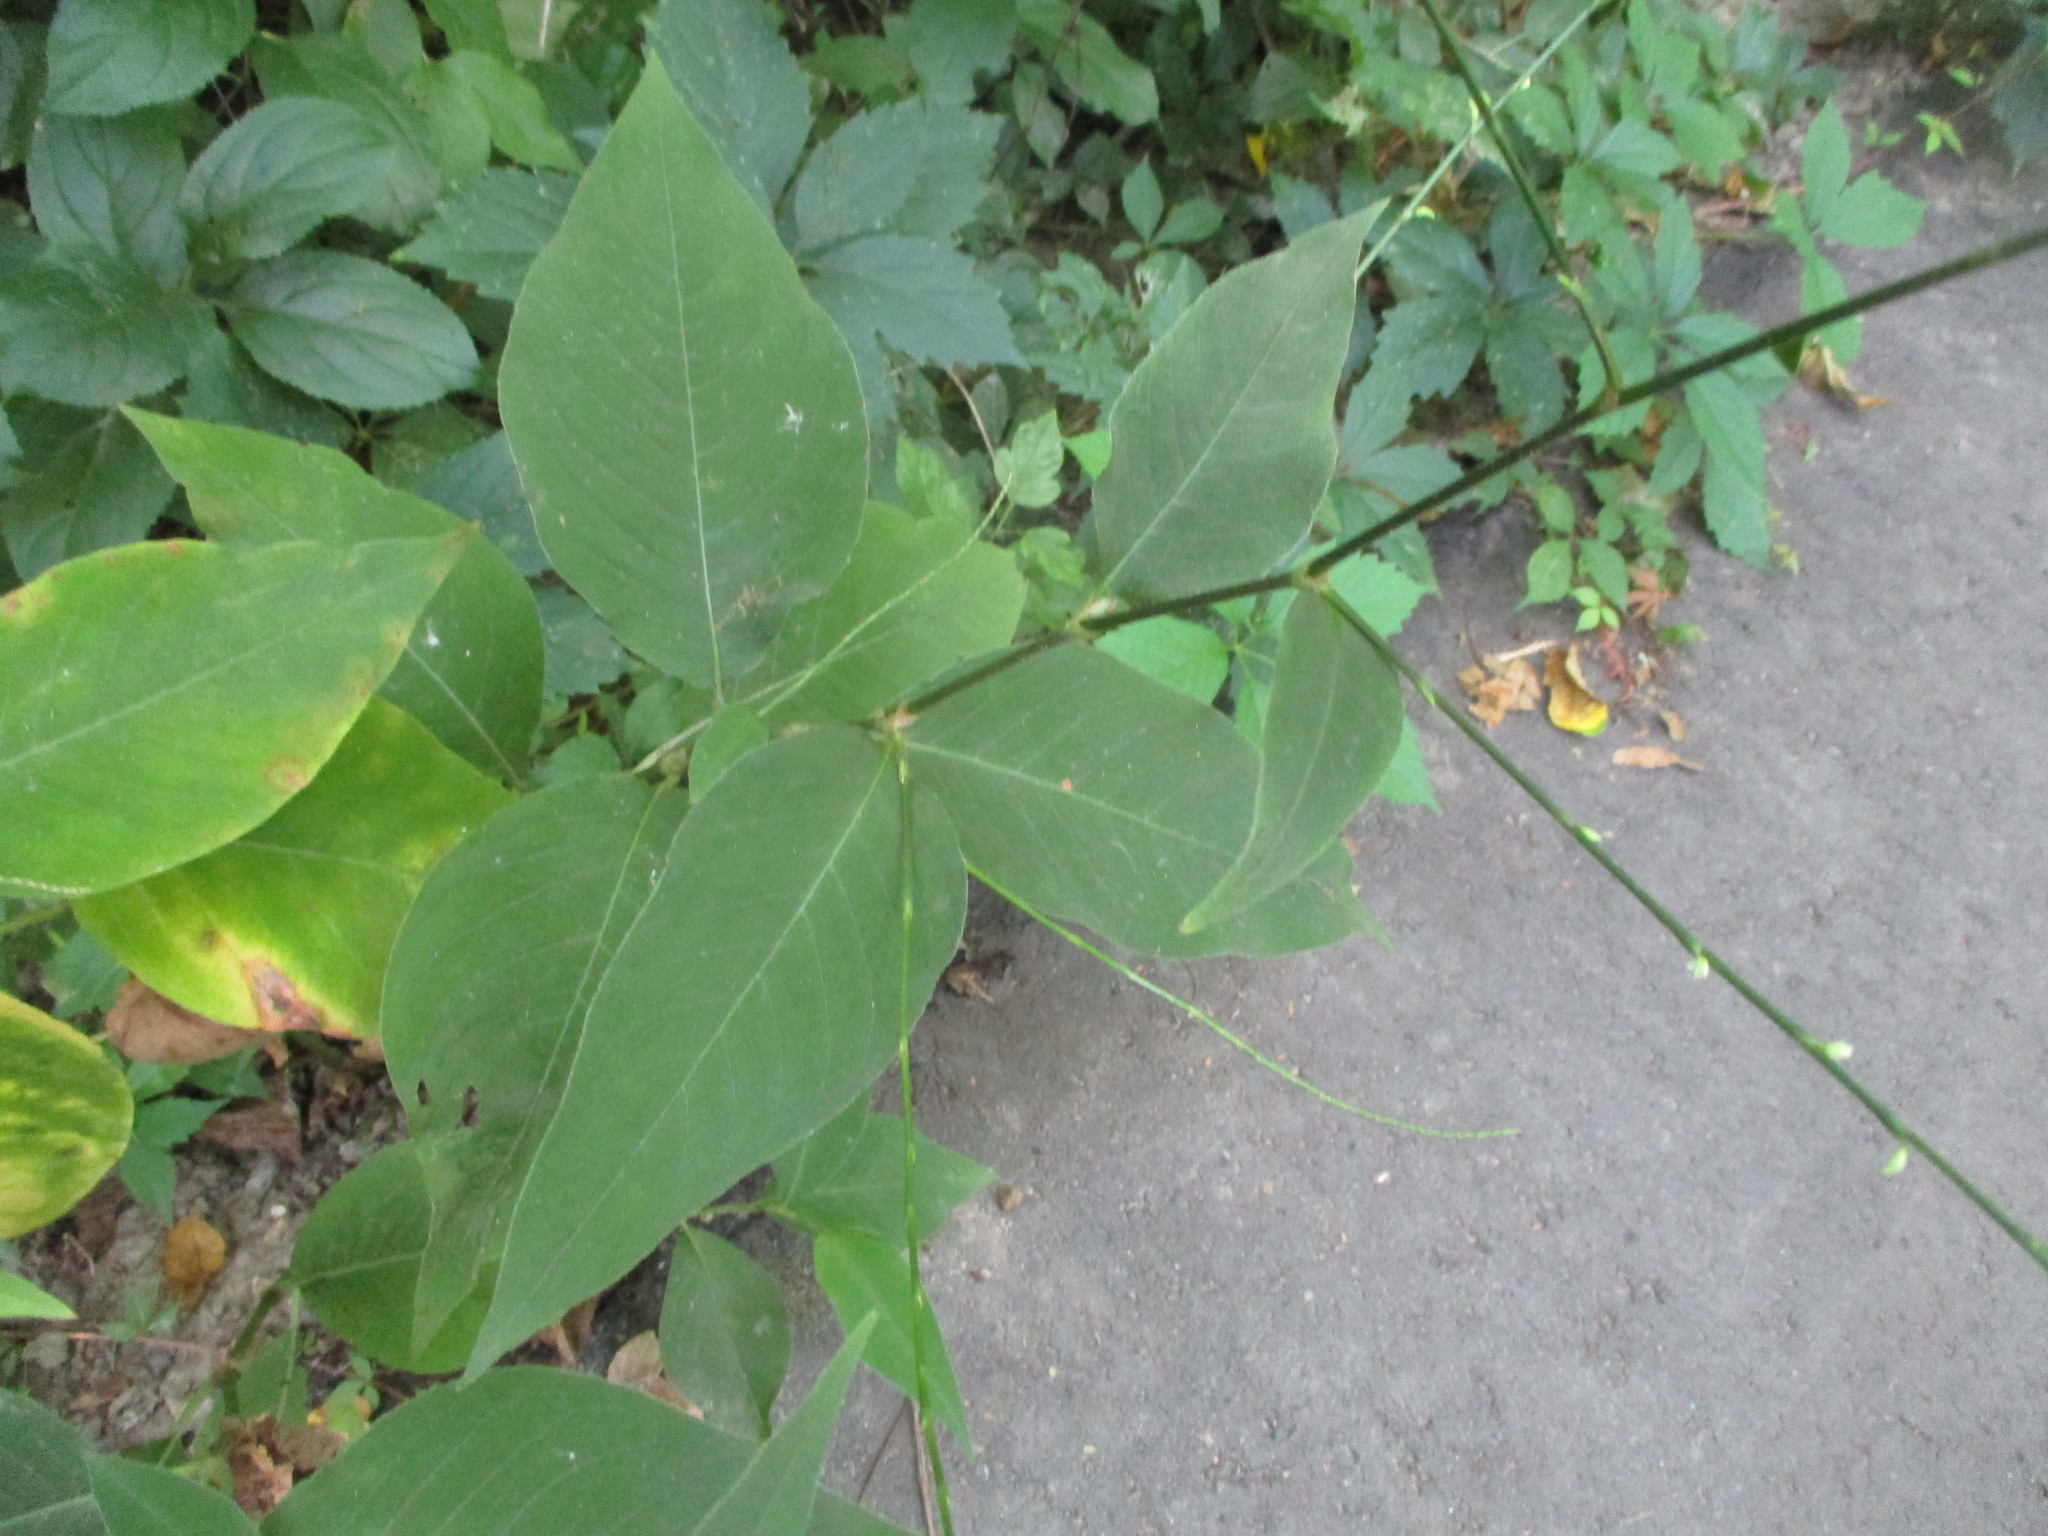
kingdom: Plantae
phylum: Tracheophyta
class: Magnoliopsida
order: Caryophyllales
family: Polygonaceae
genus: Persicaria
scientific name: Persicaria virginiana
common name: Jumpseed
